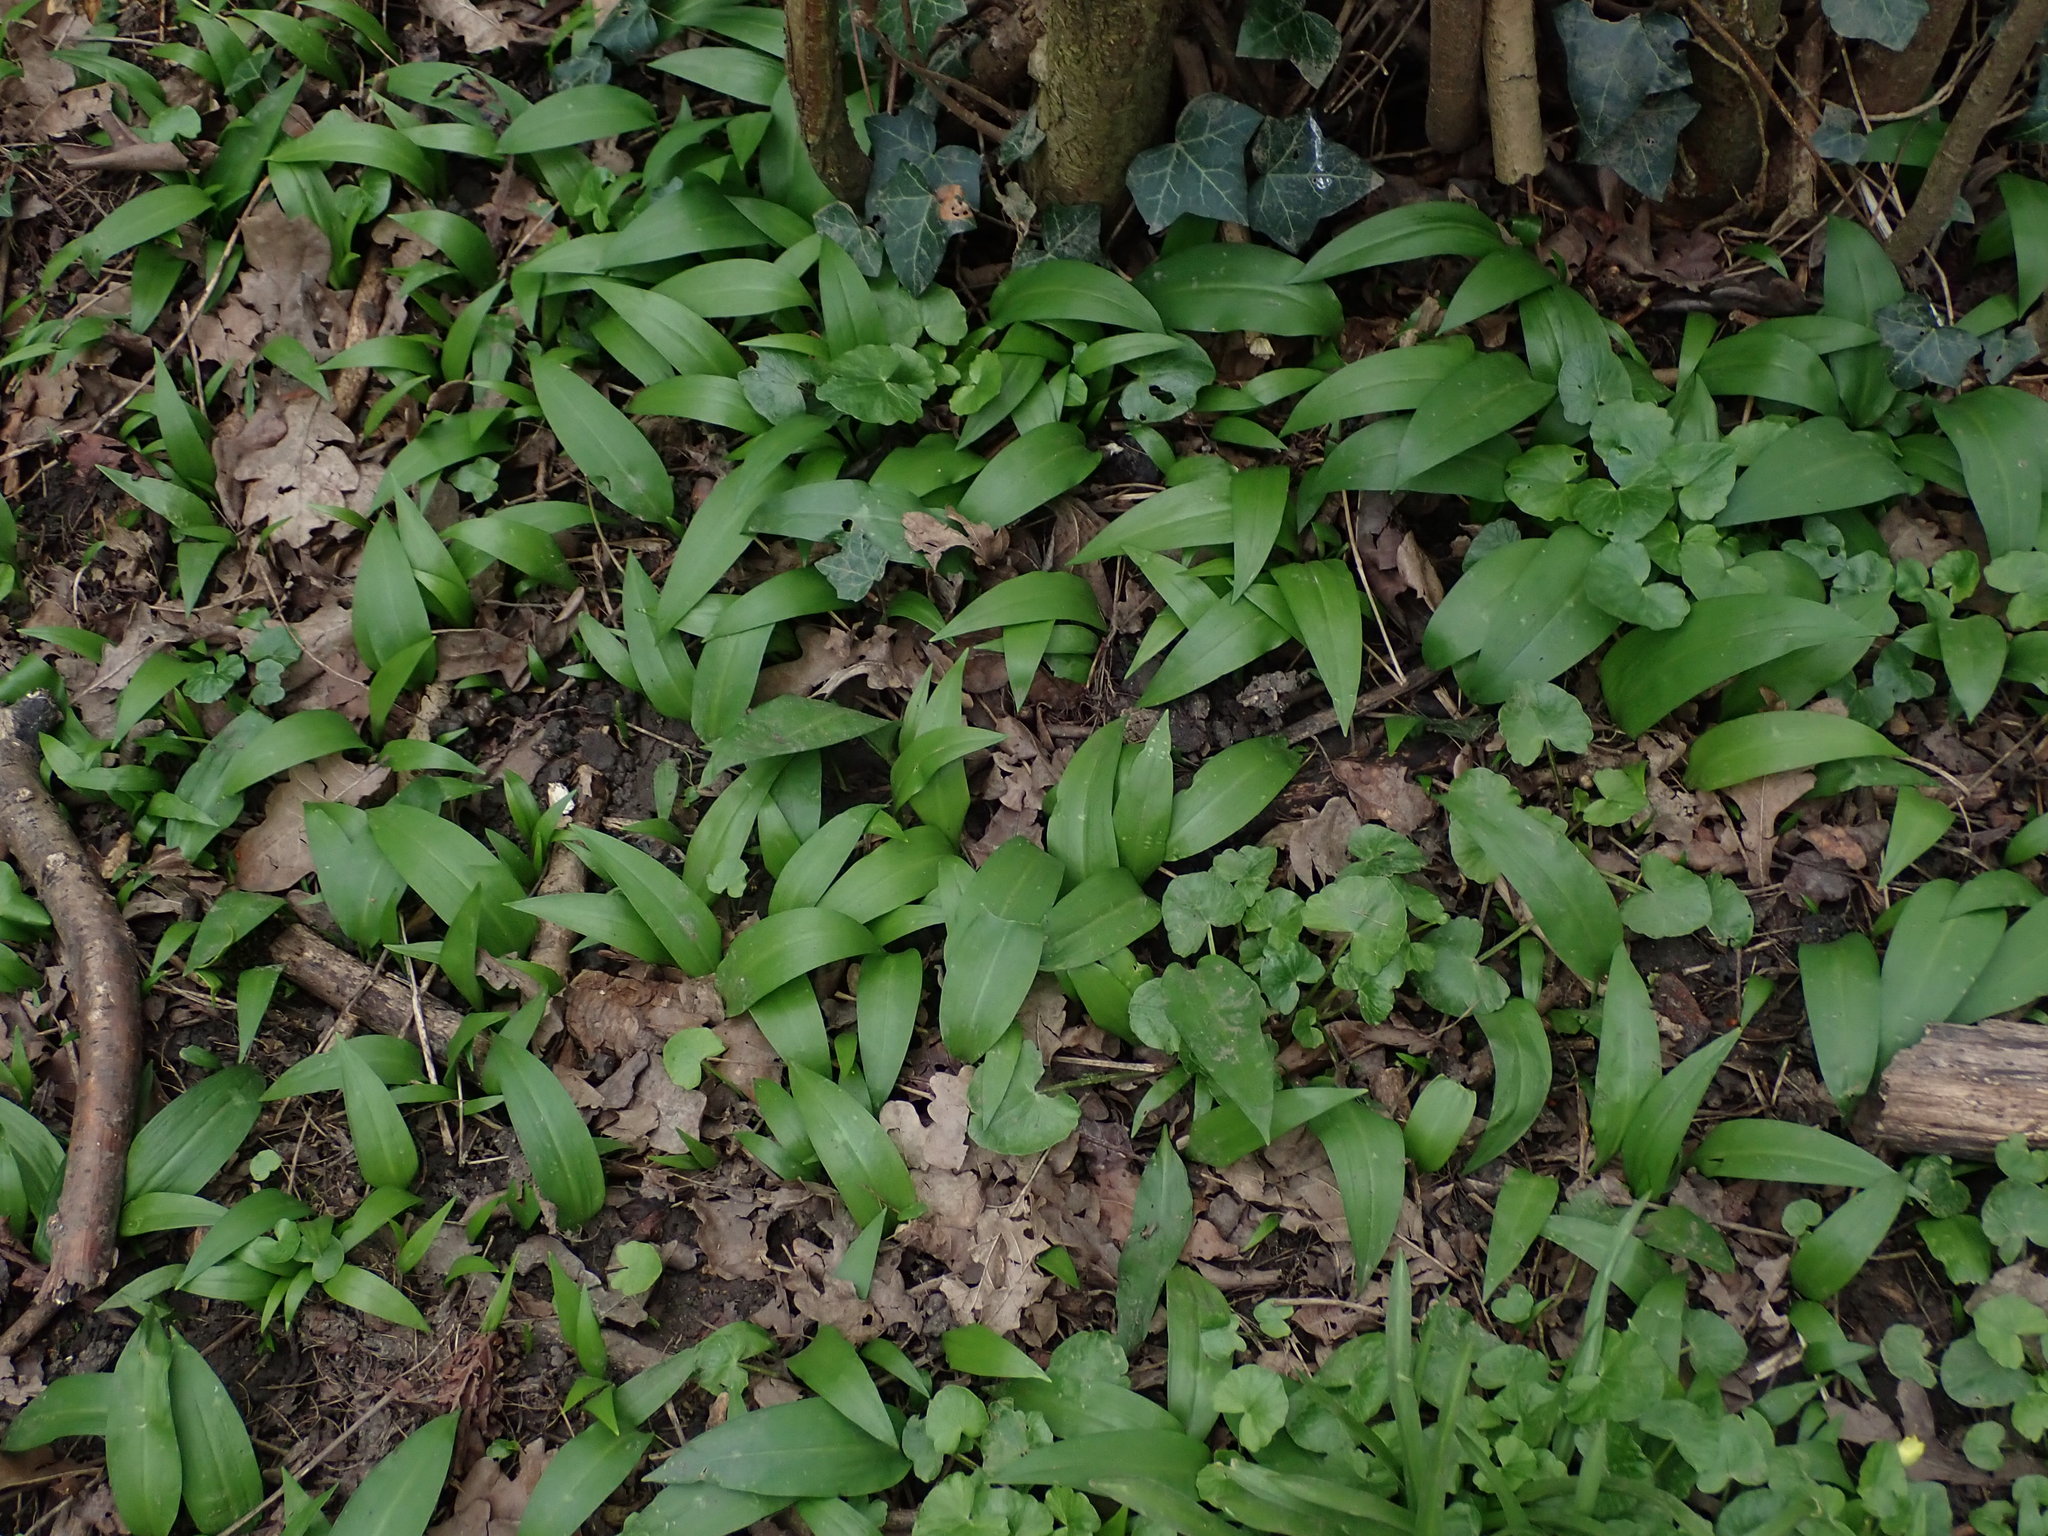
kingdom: Plantae
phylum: Tracheophyta
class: Liliopsida
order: Asparagales
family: Amaryllidaceae
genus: Allium
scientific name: Allium ursinum
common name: Ramsons
